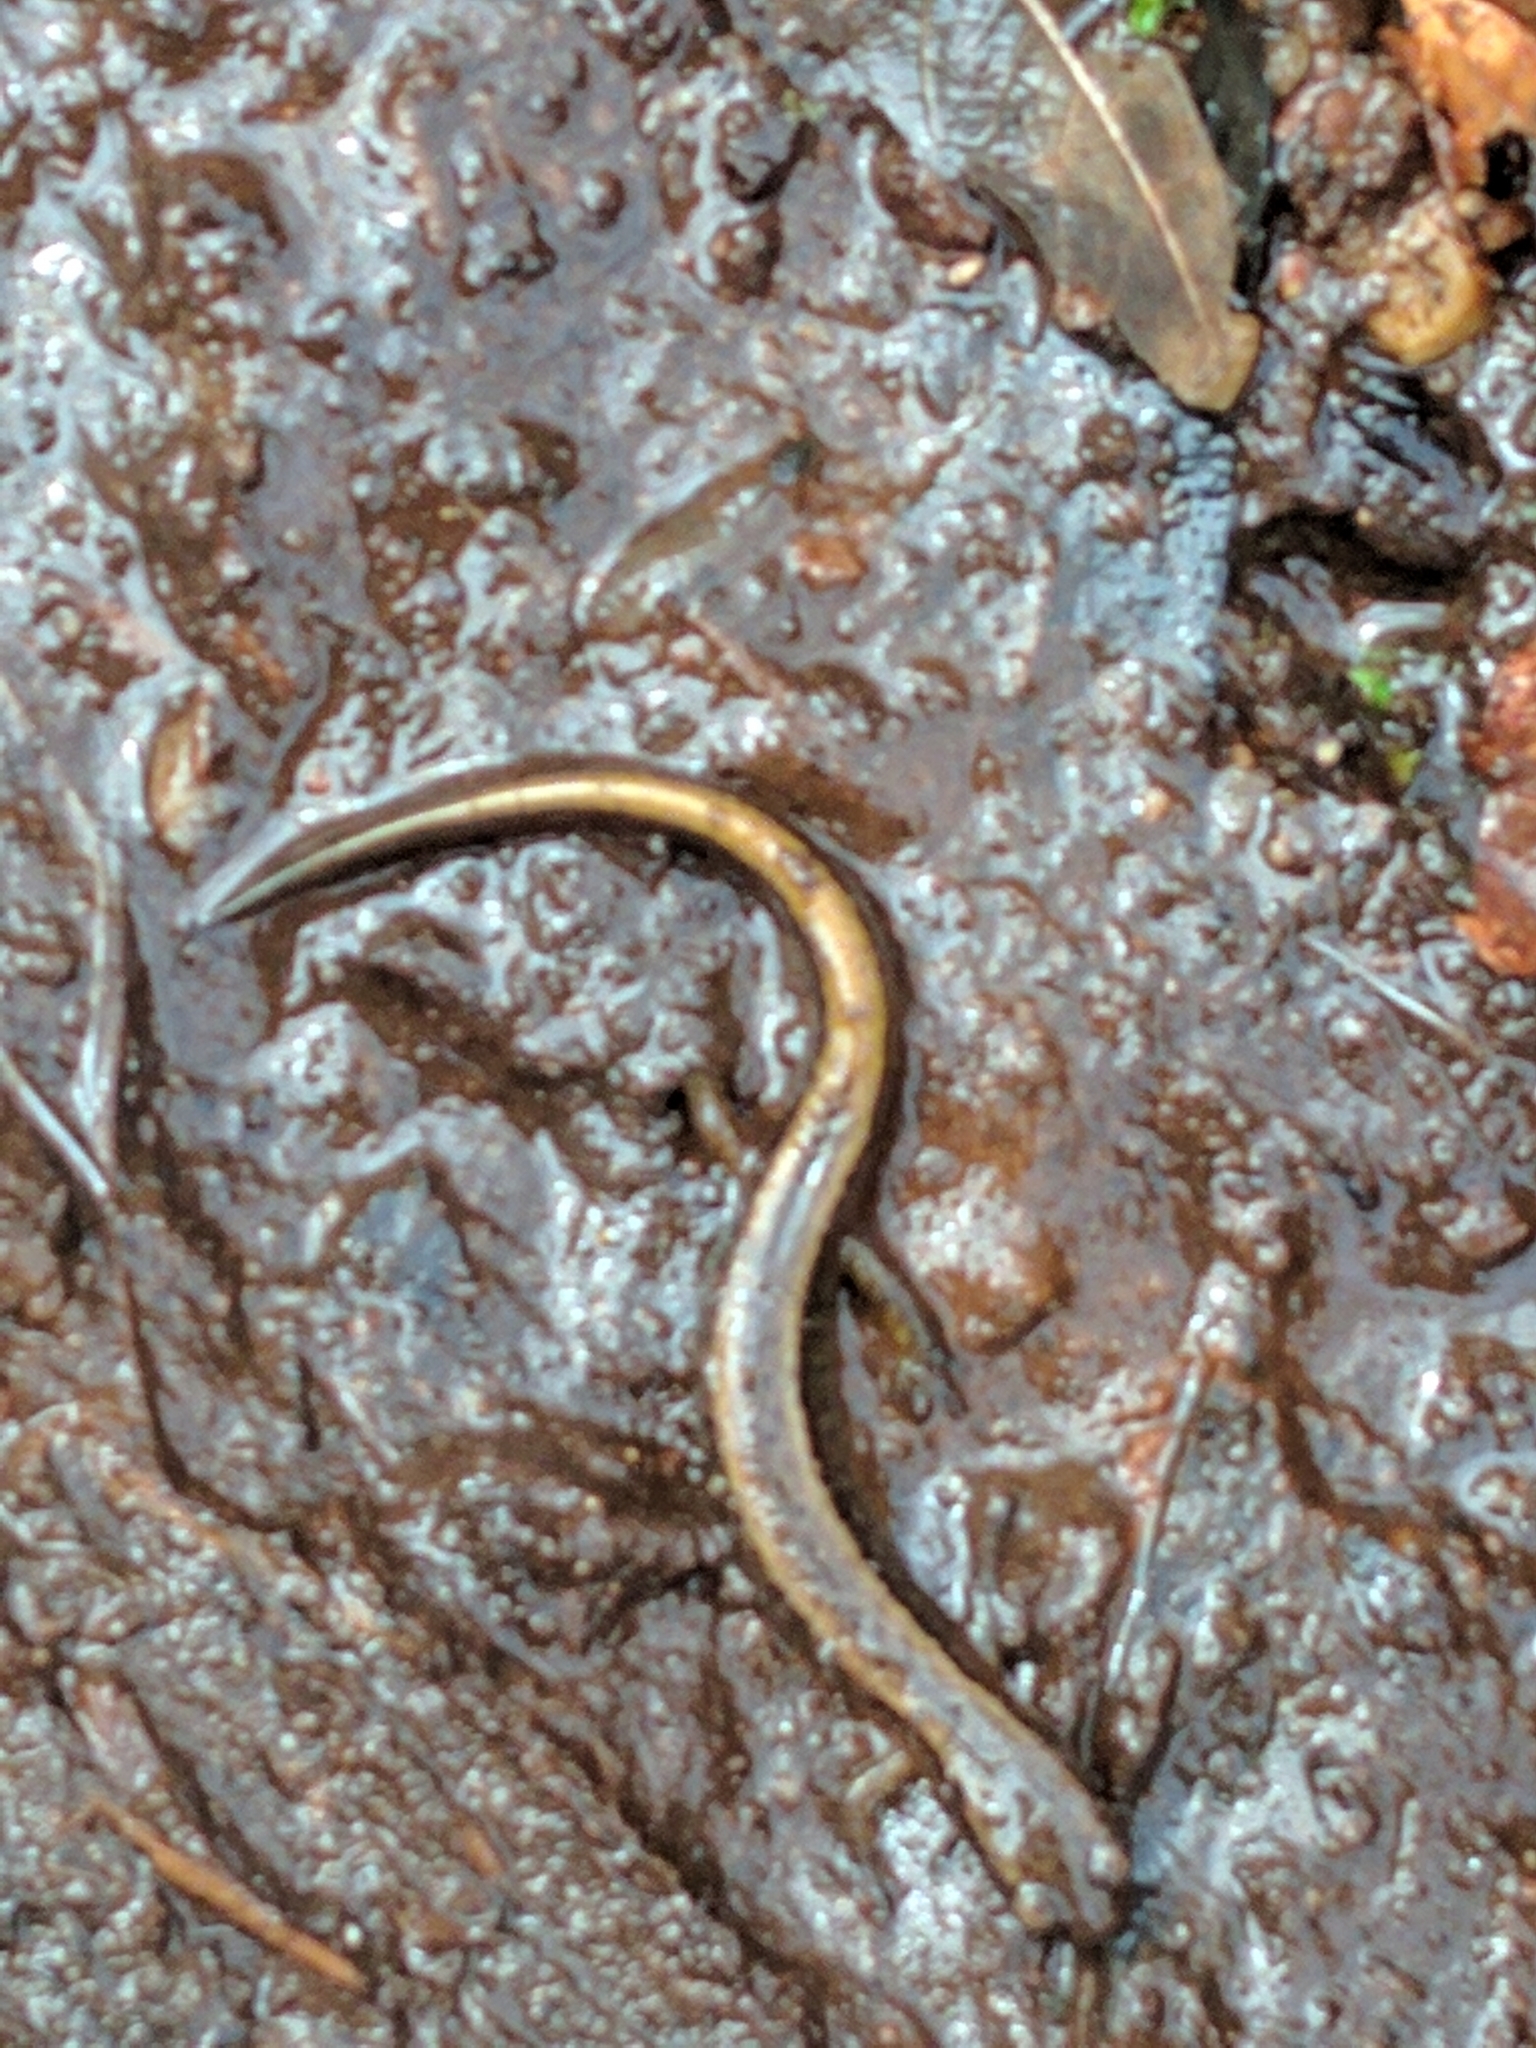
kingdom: Animalia
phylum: Chordata
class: Amphibia
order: Caudata
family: Plethodontidae
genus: Eurycea
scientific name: Eurycea bislineata
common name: Northern two-lined salamander
